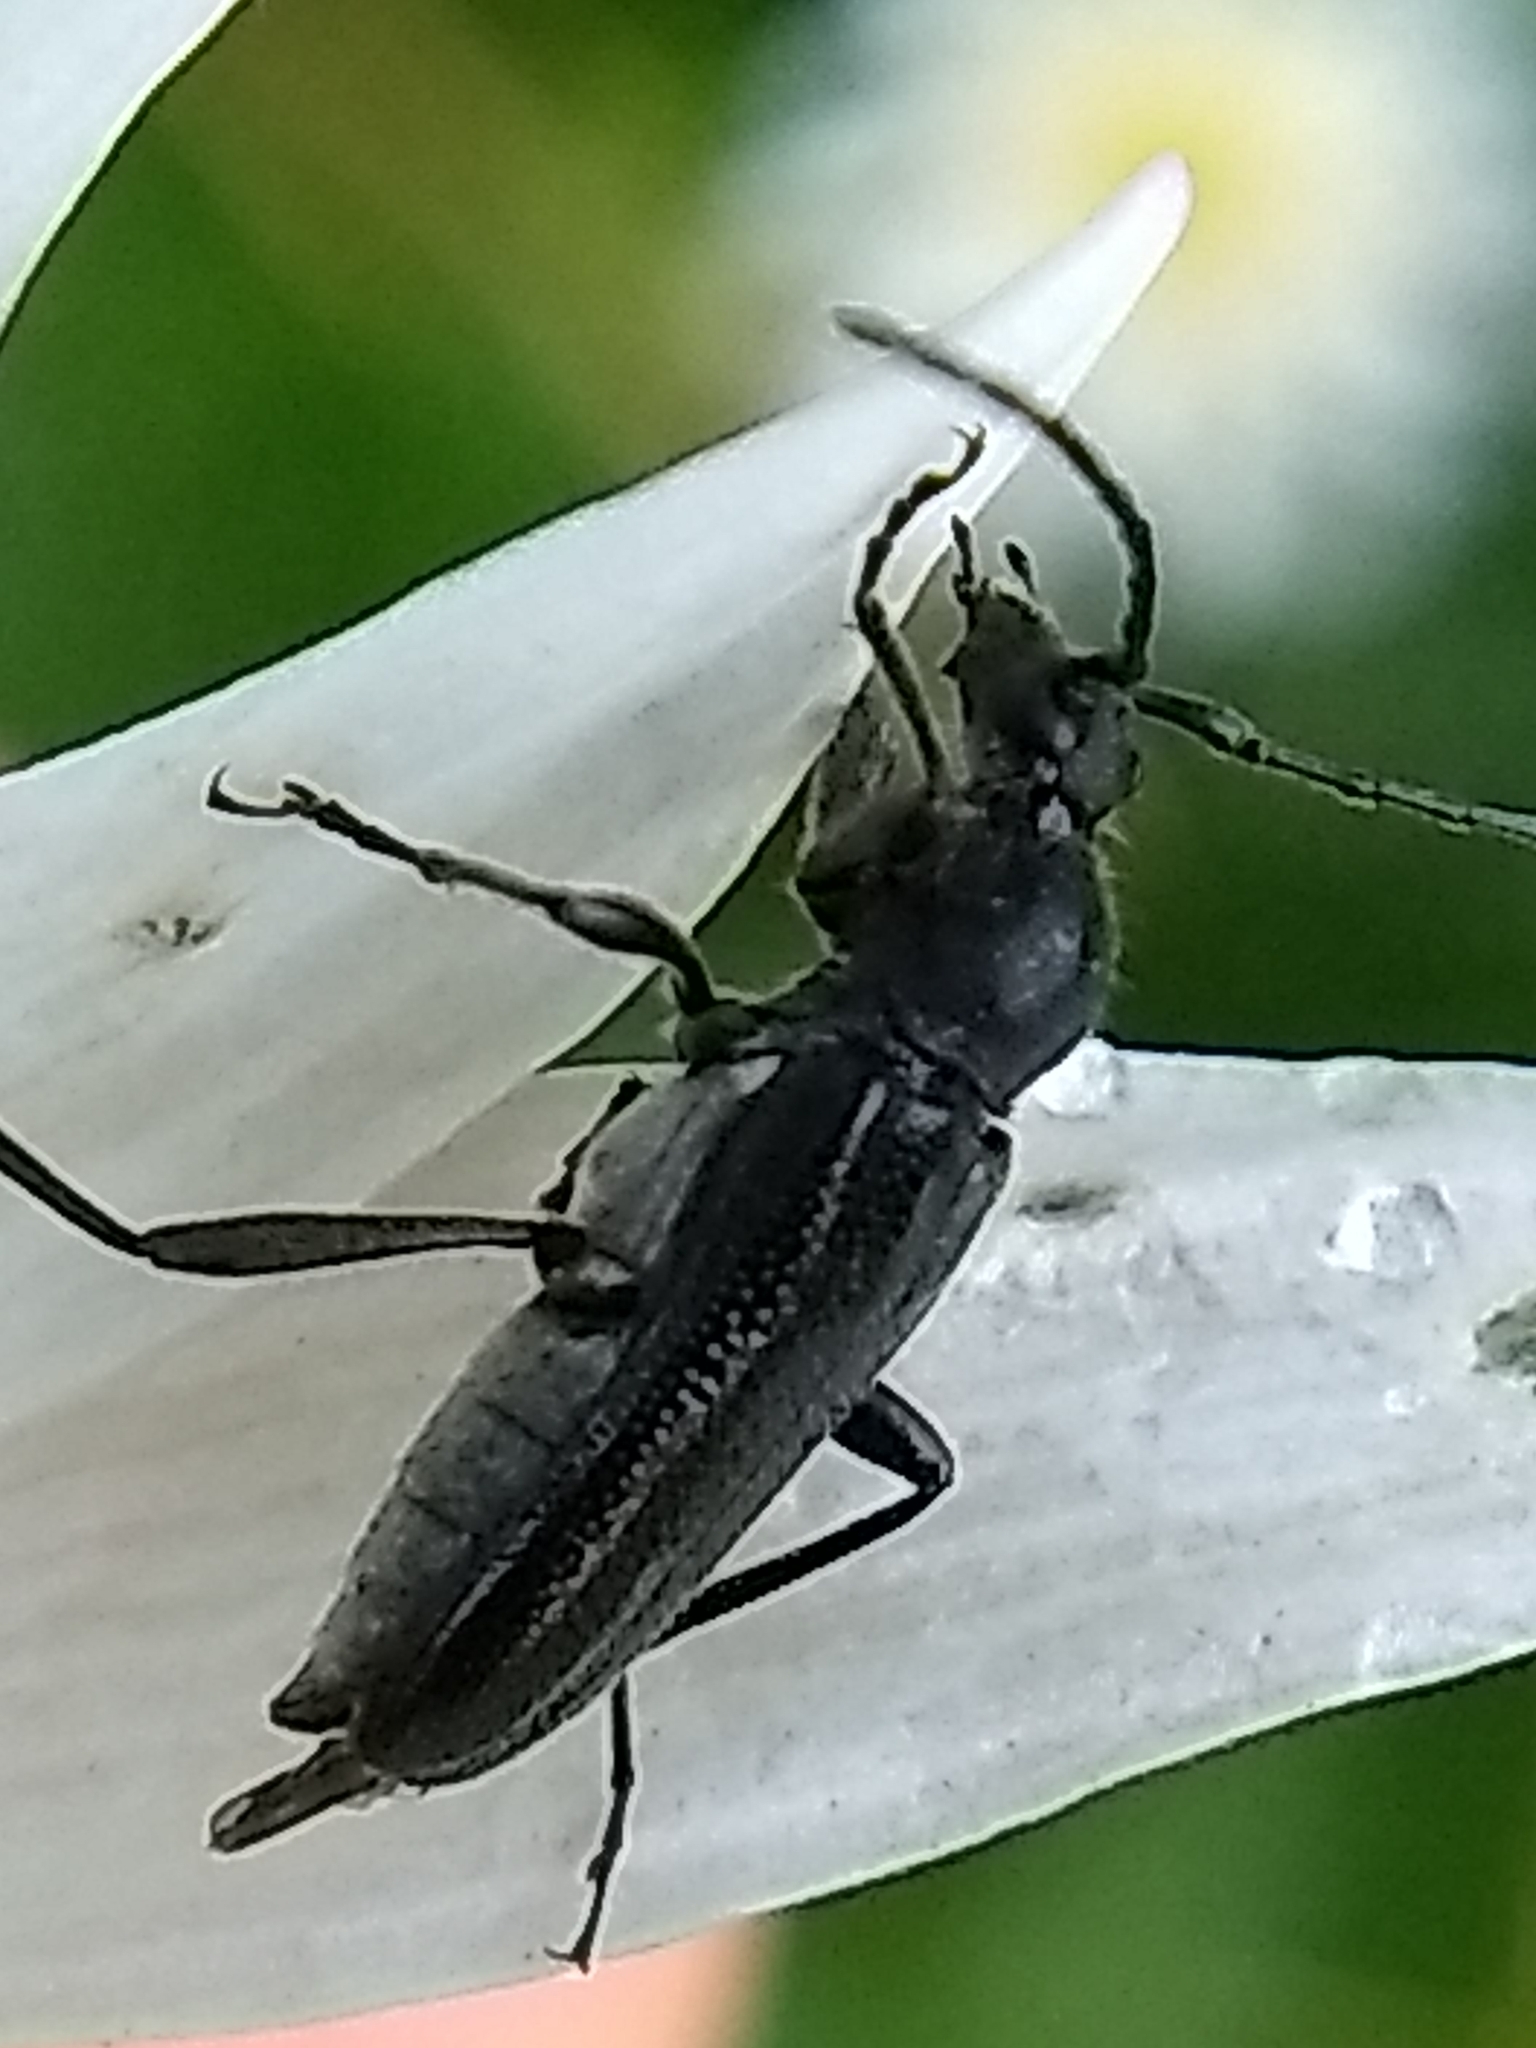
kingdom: Animalia
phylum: Arthropoda
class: Insecta
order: Coleoptera
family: Cerambycidae
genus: Anoplodera
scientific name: Anoplodera pubera
